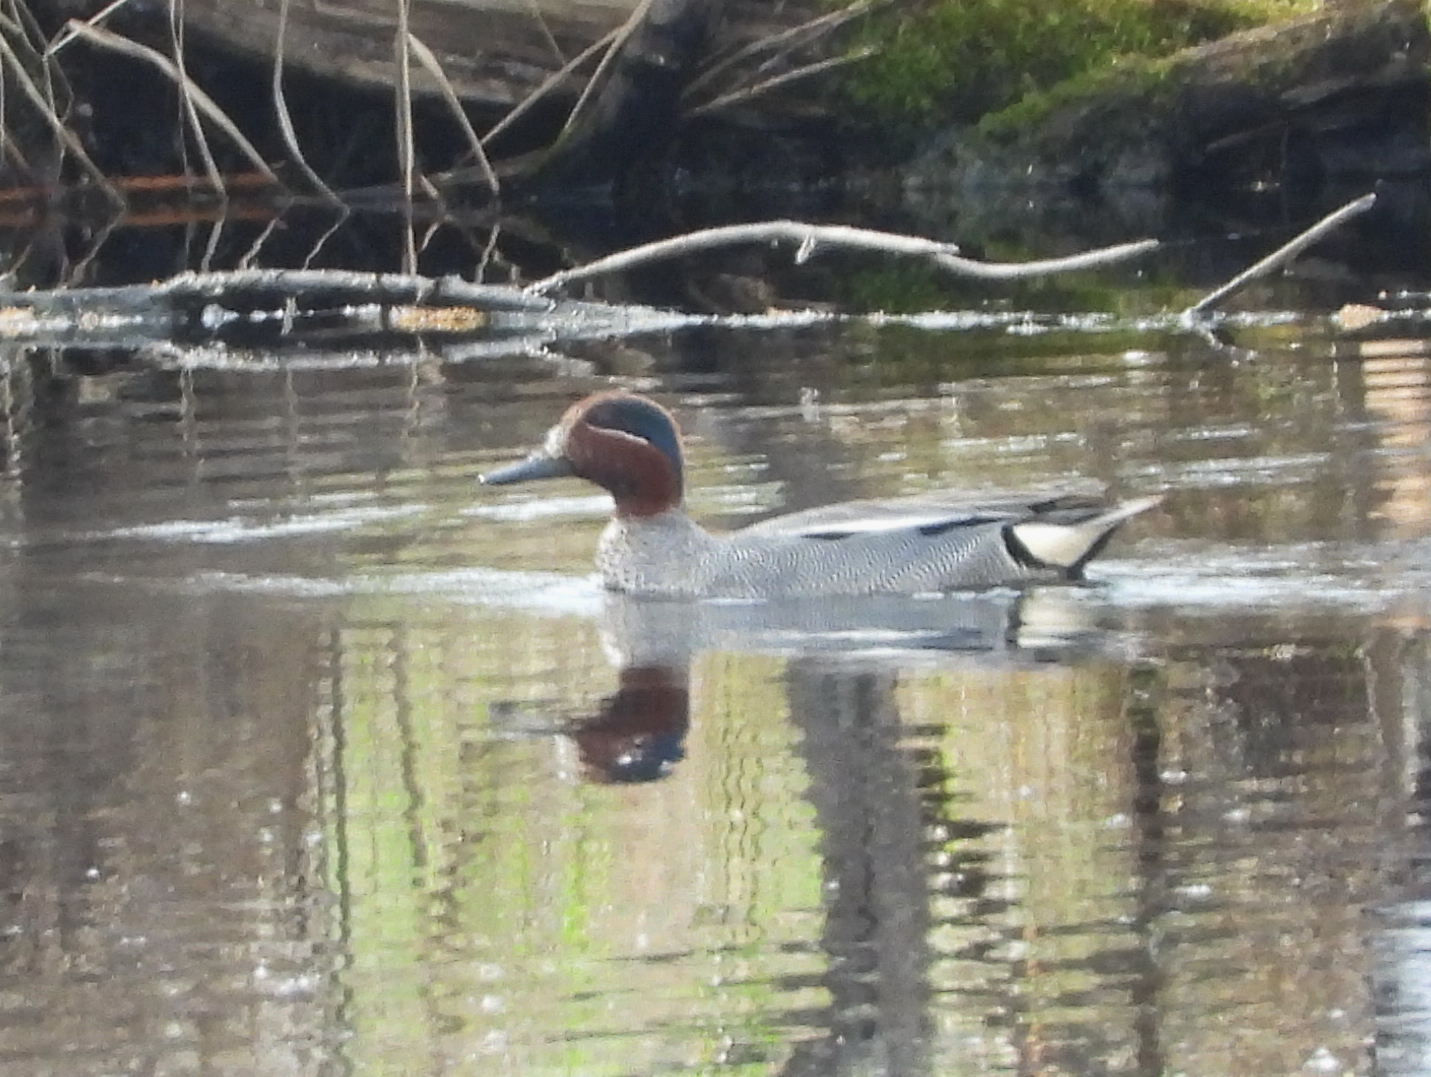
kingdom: Animalia
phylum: Chordata
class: Aves
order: Anseriformes
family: Anatidae
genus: Anas
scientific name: Anas crecca
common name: Eurasian teal
